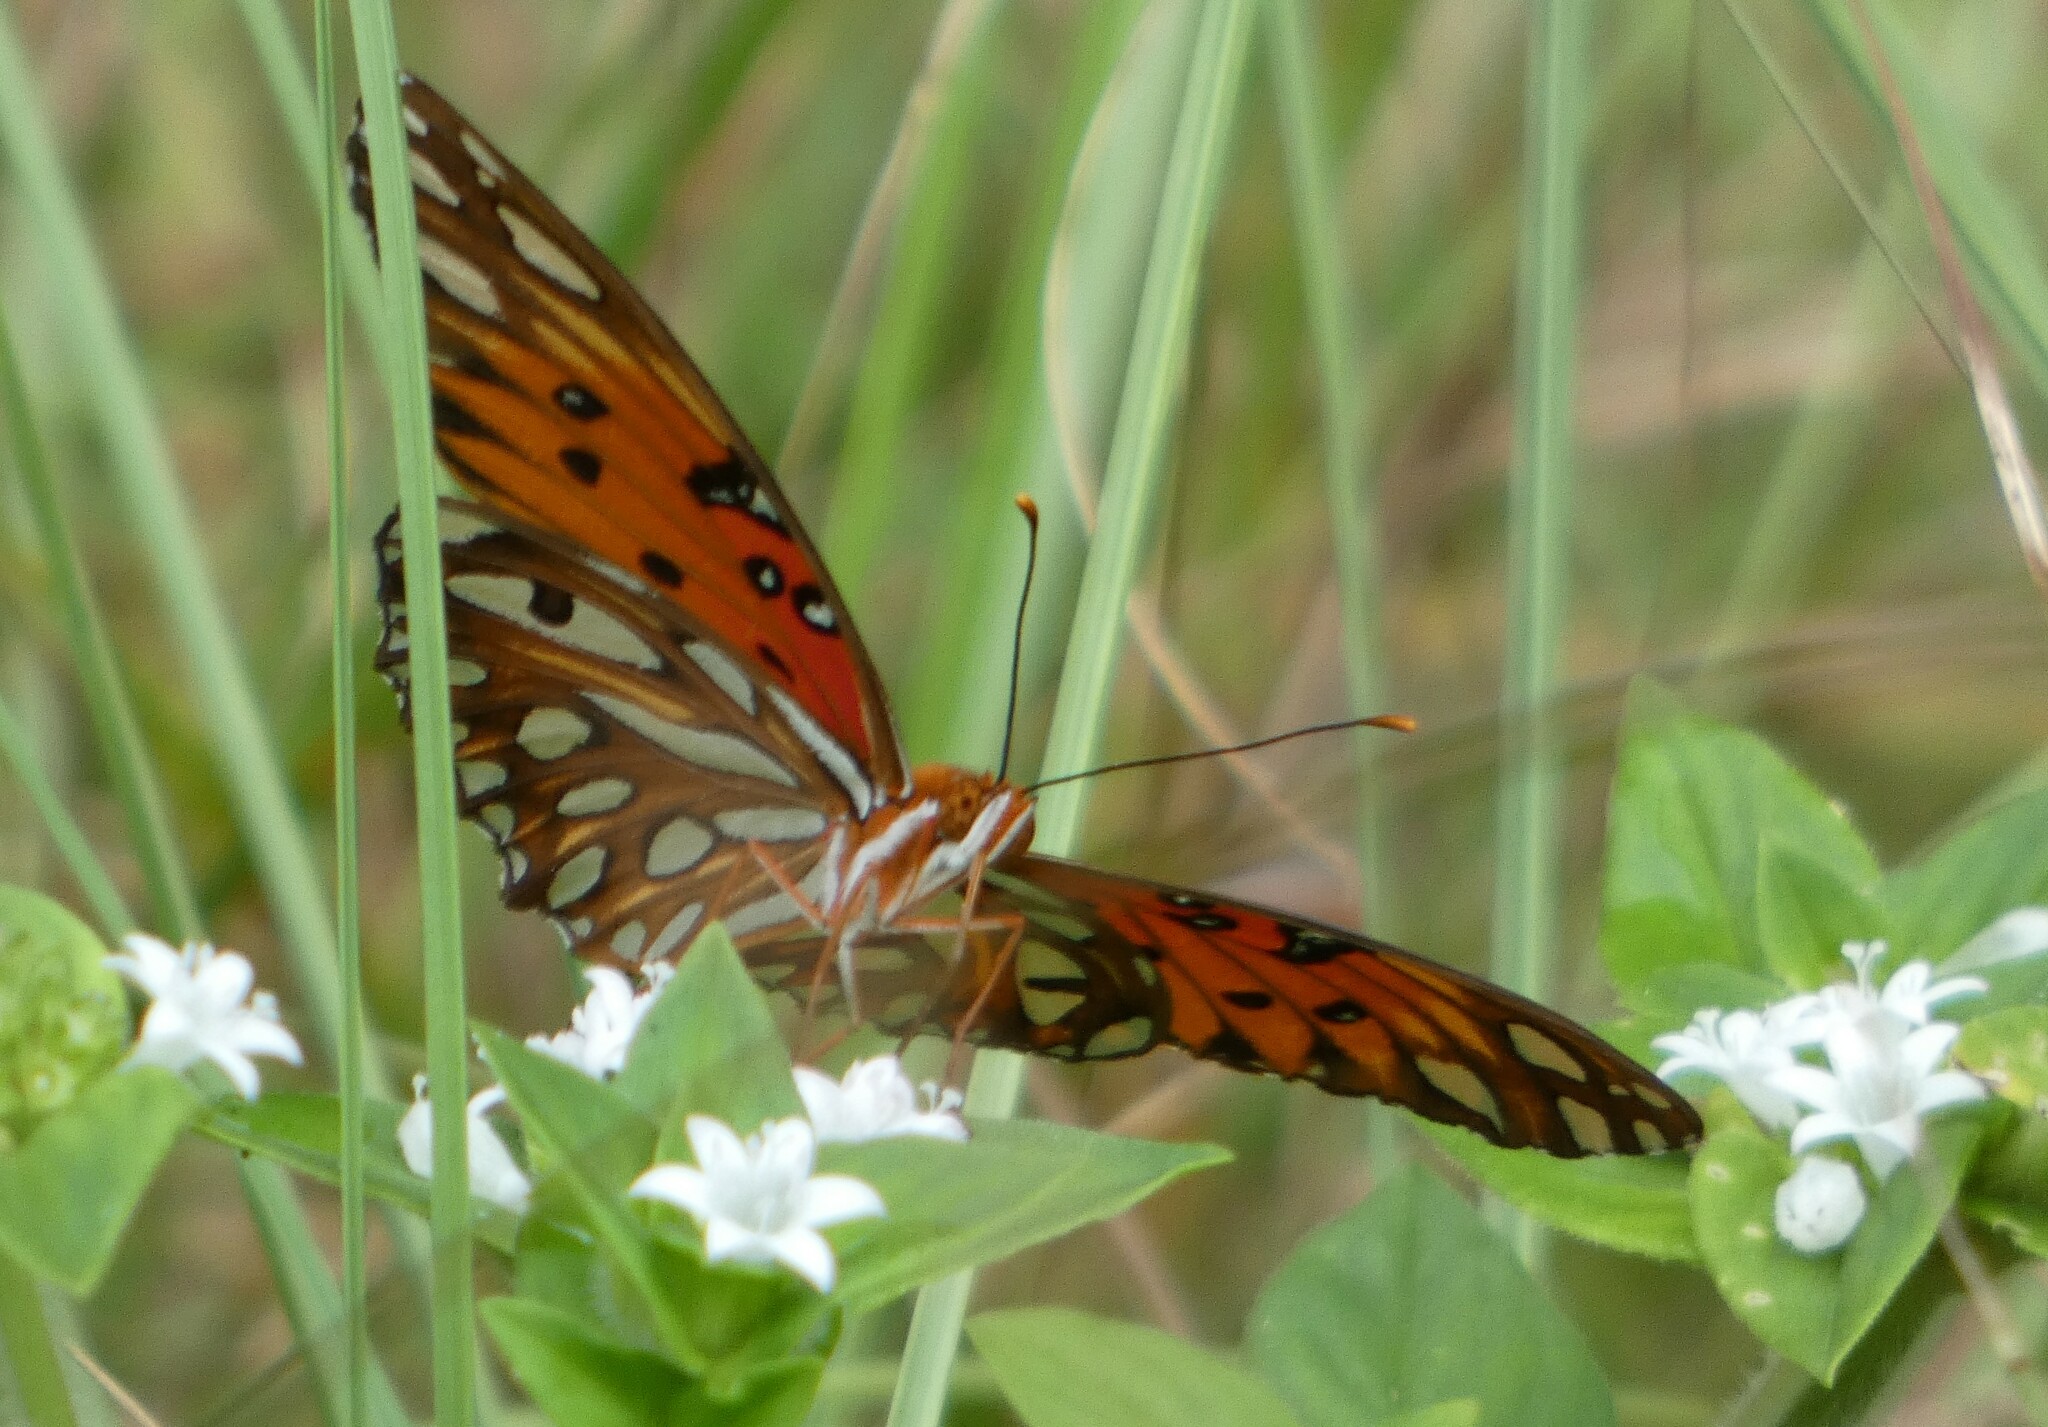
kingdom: Animalia
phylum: Arthropoda
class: Insecta
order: Lepidoptera
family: Nymphalidae
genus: Dione
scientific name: Dione vanillae
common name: Gulf fritillary
